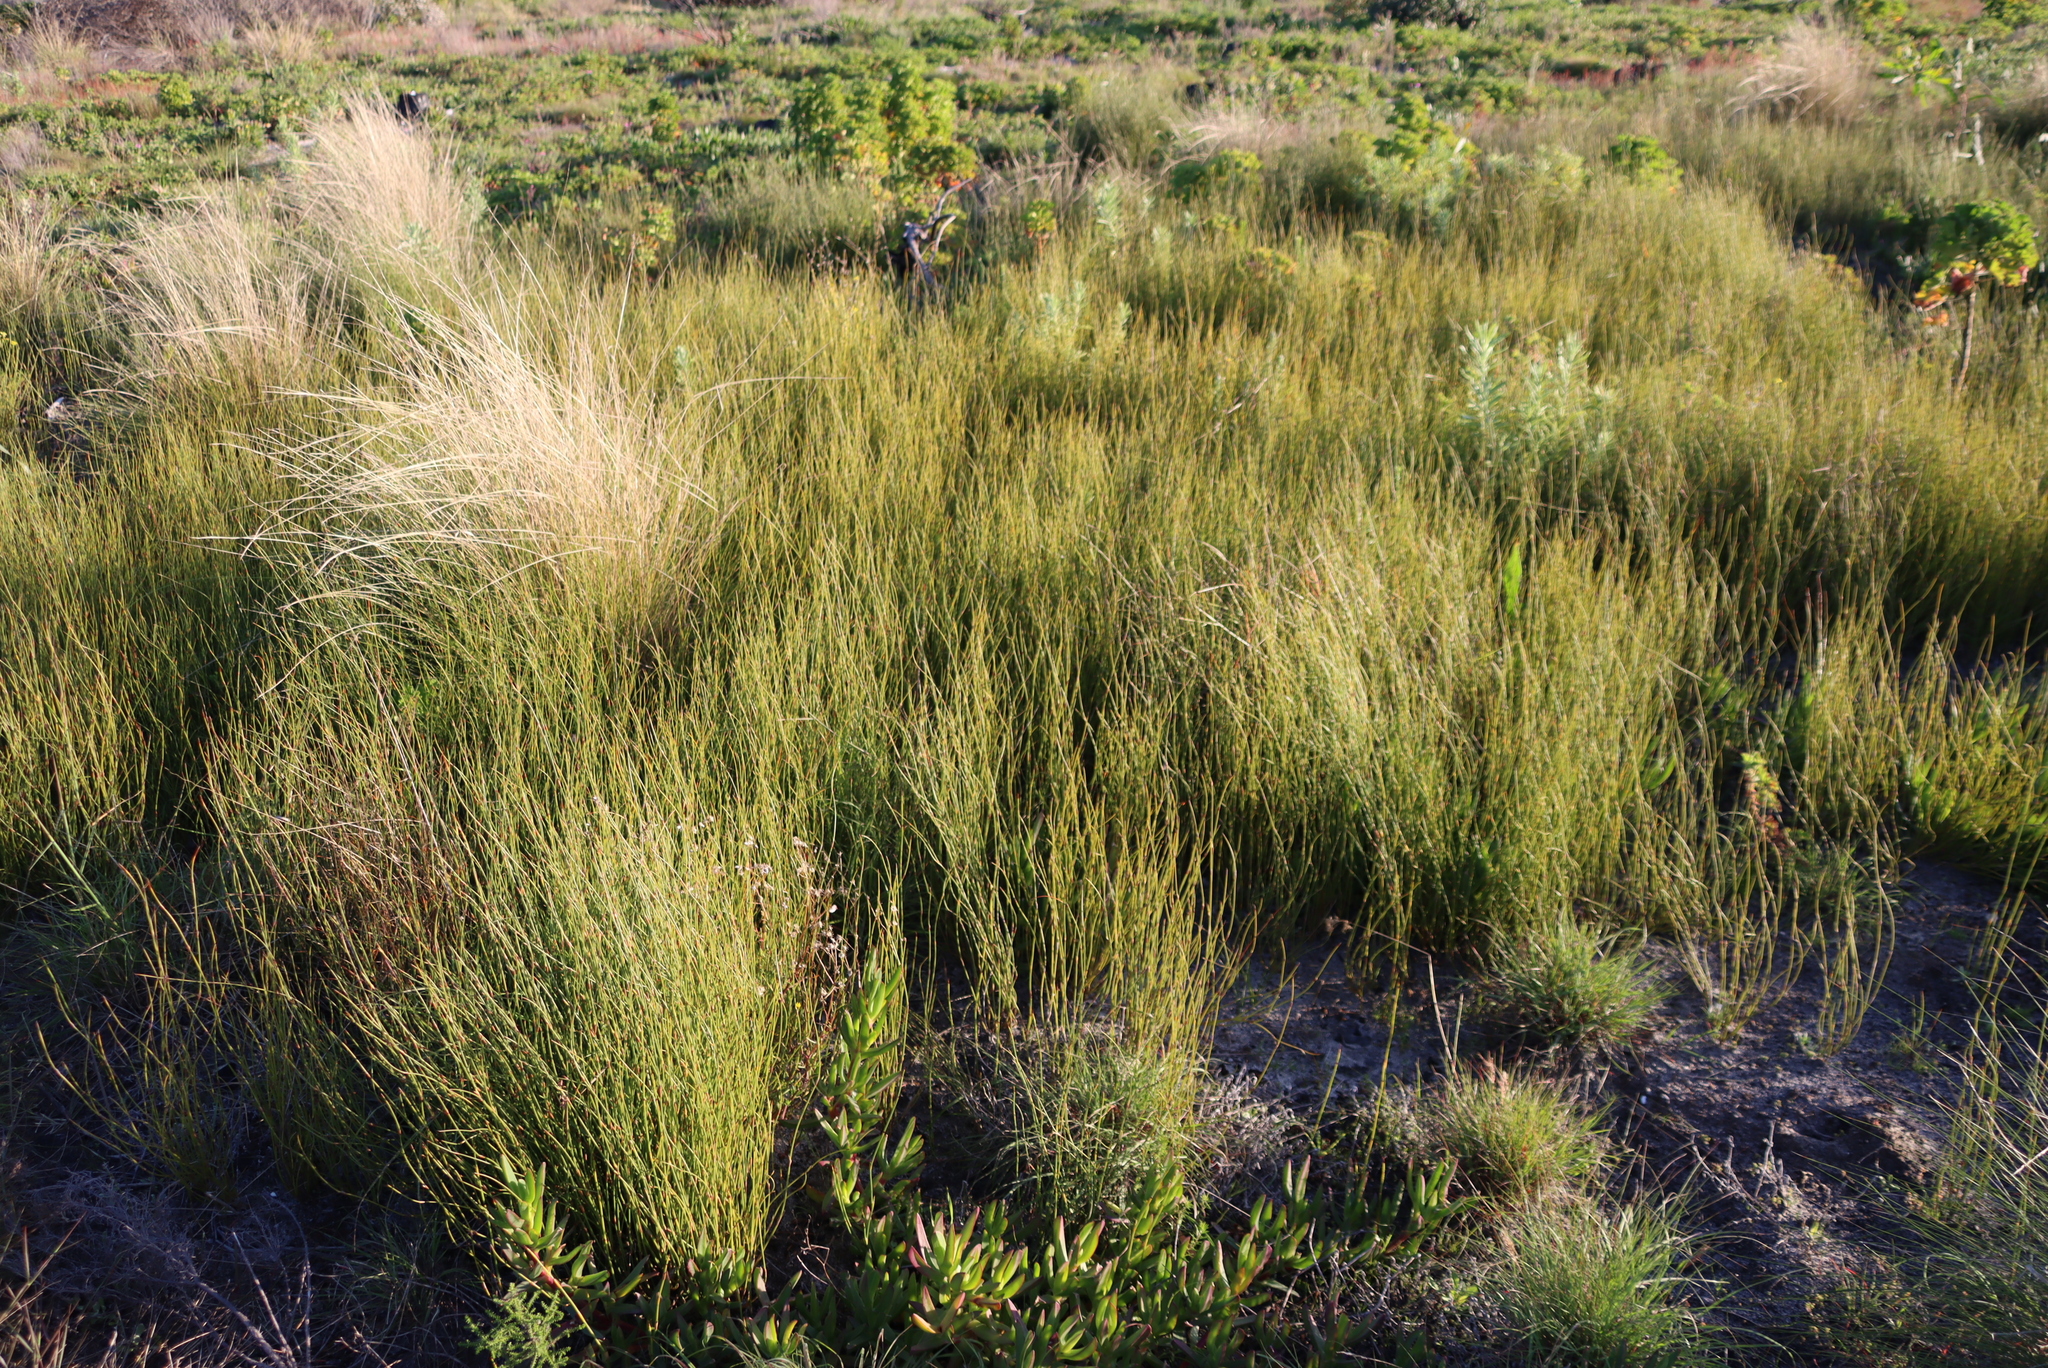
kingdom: Plantae
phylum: Tracheophyta
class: Liliopsida
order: Poales
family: Restionaceae
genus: Willdenowia
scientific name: Willdenowia sulcata
